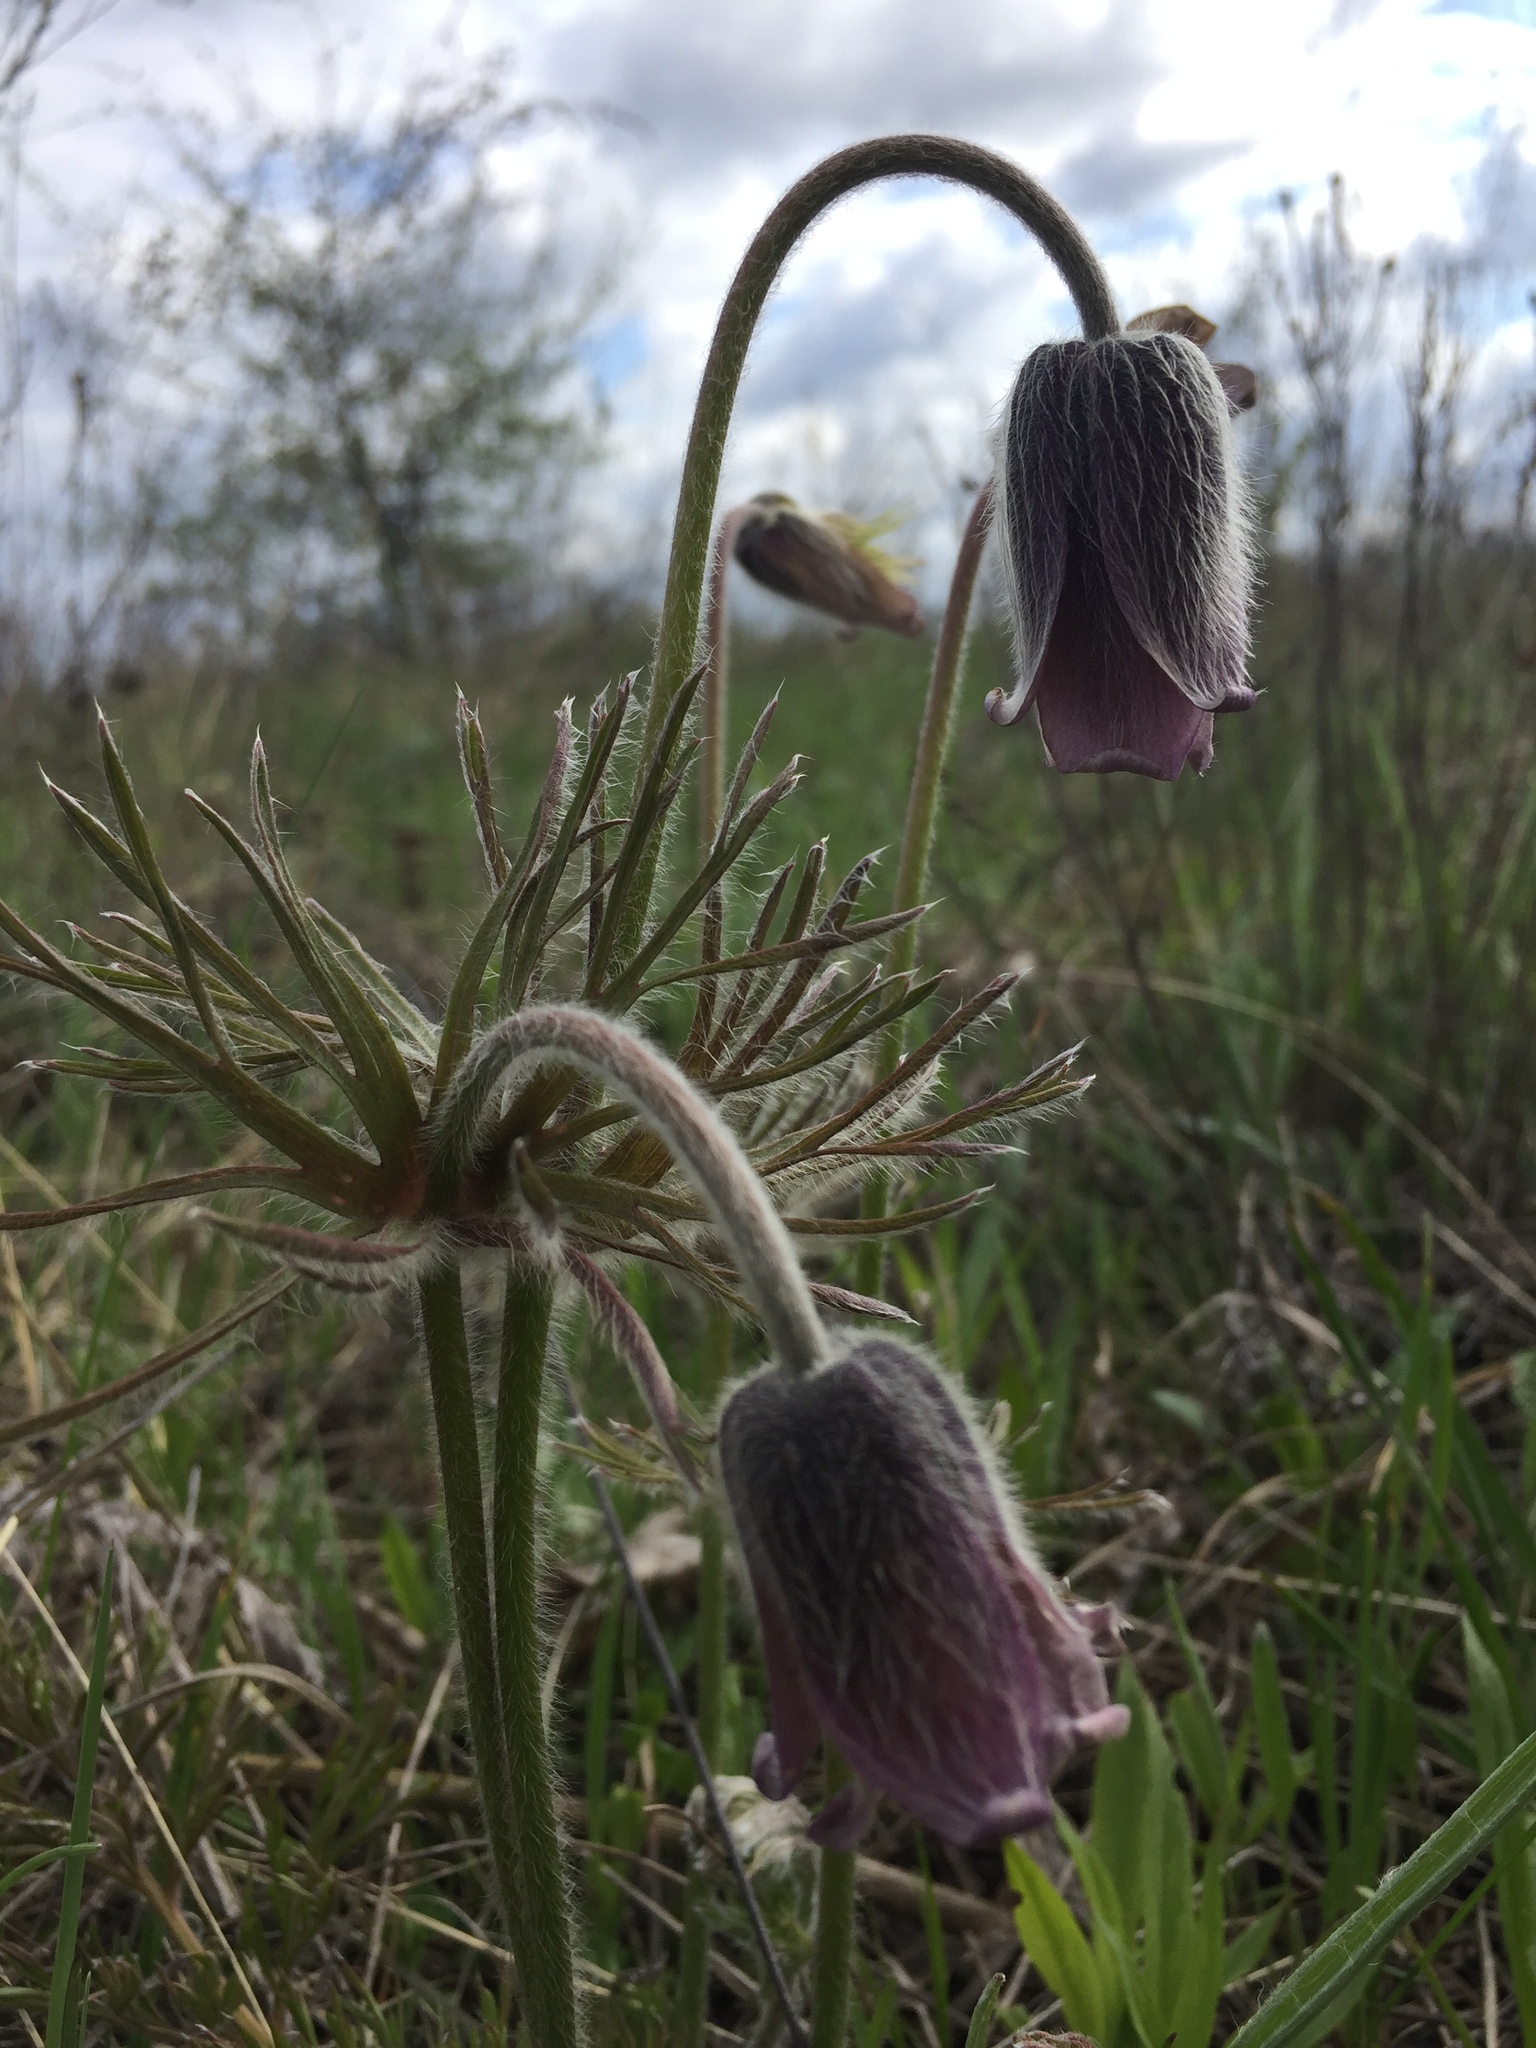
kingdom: Plantae
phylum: Tracheophyta
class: Magnoliopsida
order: Ranunculales
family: Ranunculaceae
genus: Pulsatilla
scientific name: Pulsatilla pratensis
